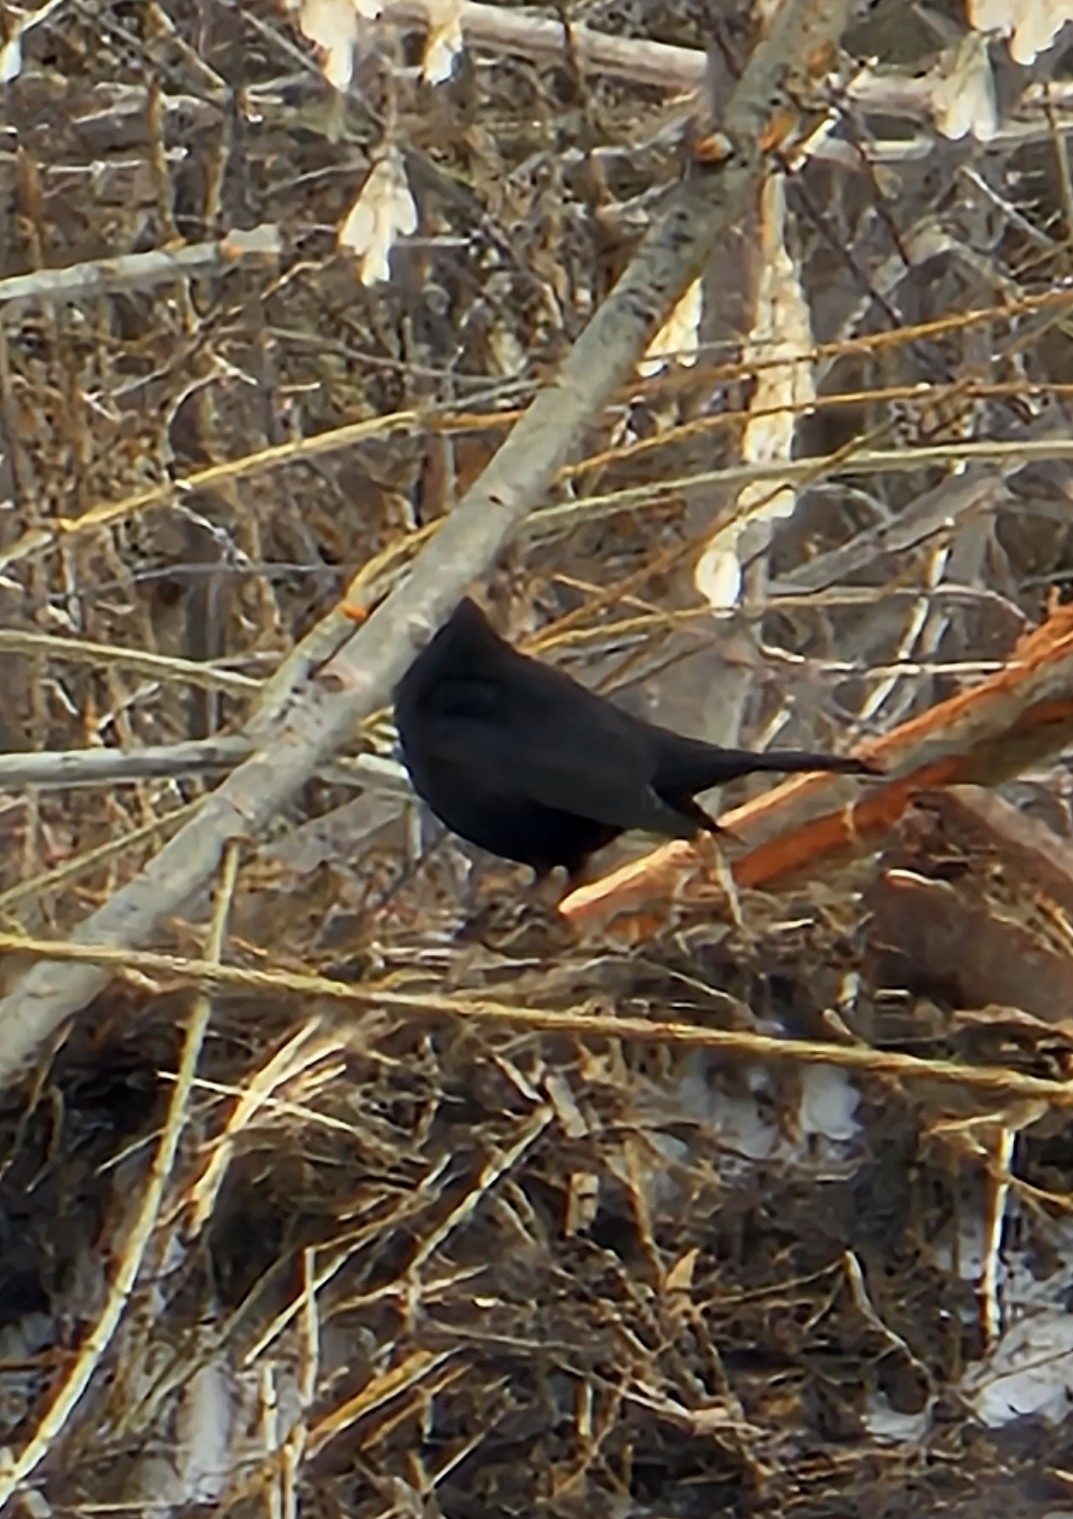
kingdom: Animalia
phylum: Chordata
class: Aves
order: Passeriformes
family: Turdidae
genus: Turdus
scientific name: Turdus merula
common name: Common blackbird
